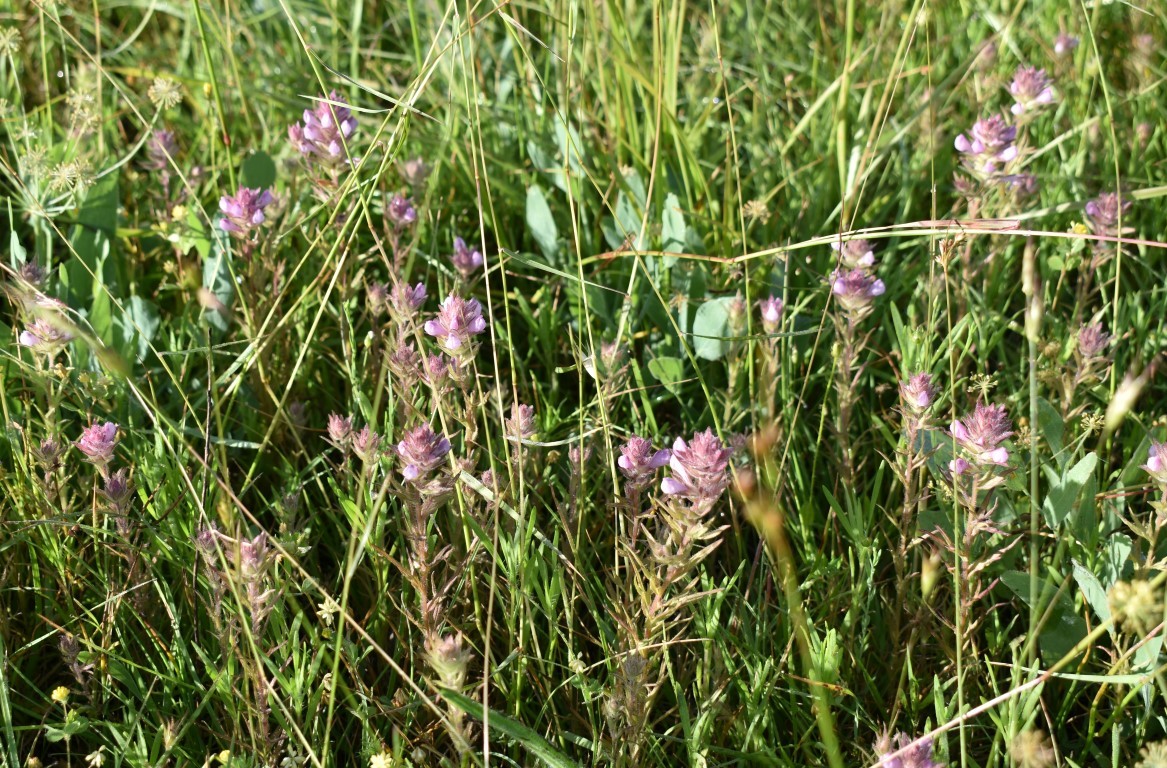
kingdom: Plantae
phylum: Tracheophyta
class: Magnoliopsida
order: Lamiales
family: Orobanchaceae
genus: Orthocarpus
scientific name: Orthocarpus bracteosus
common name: Rosy owl's-clover
